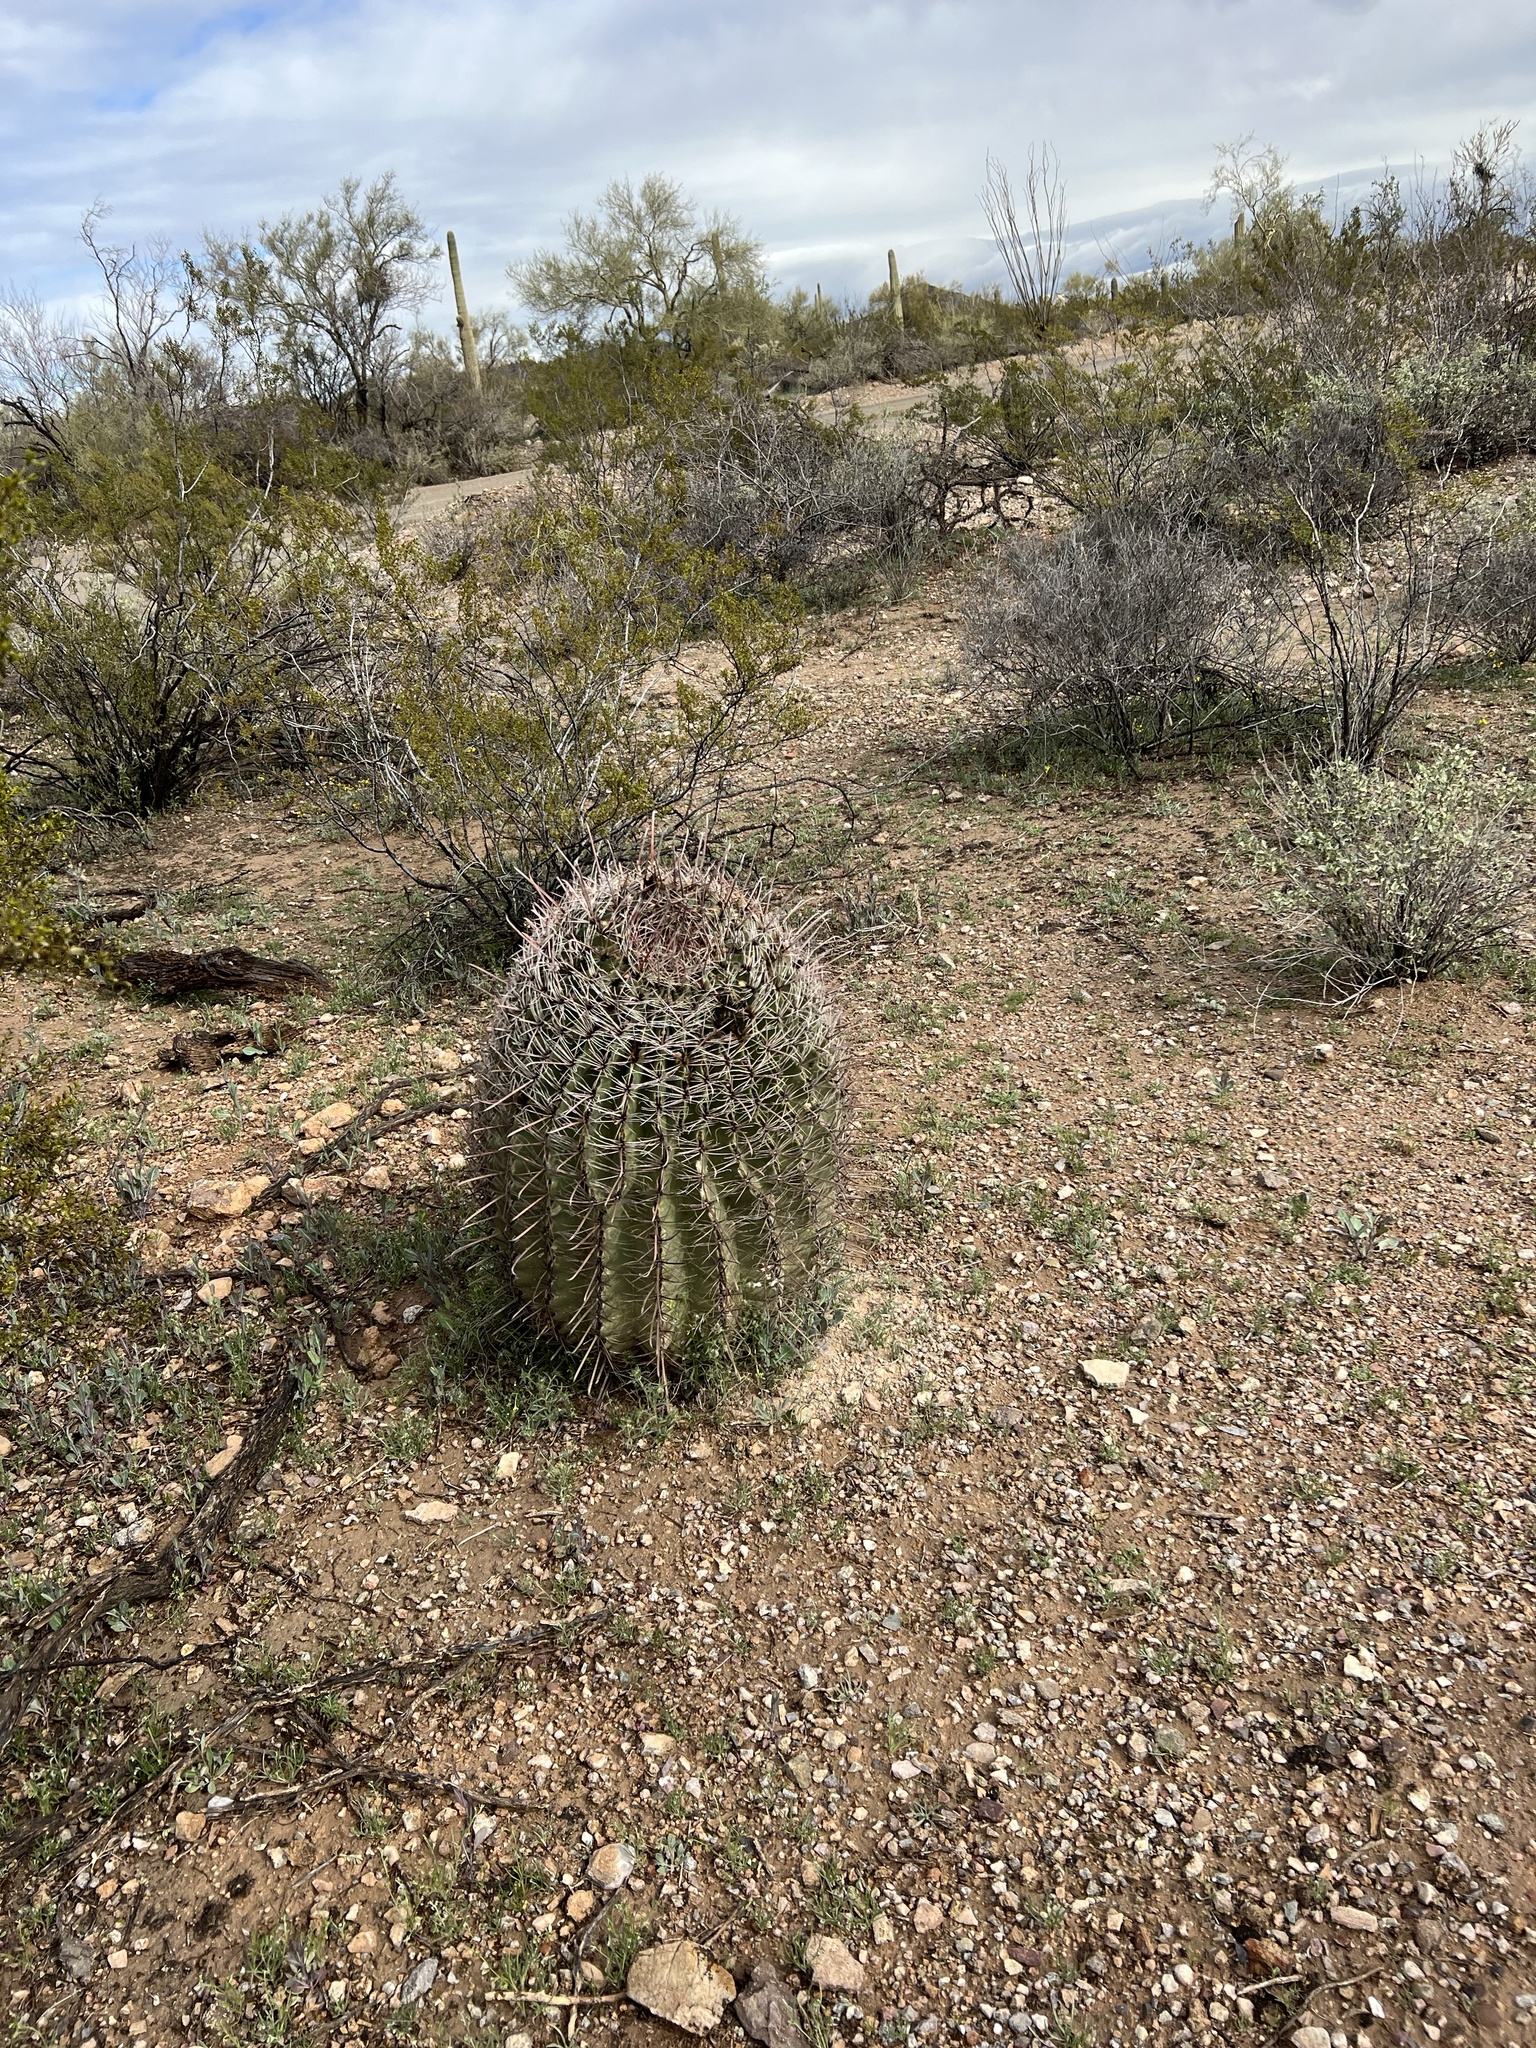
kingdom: Plantae
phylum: Tracheophyta
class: Magnoliopsida
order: Caryophyllales
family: Cactaceae
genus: Ferocactus
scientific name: Ferocactus wislizeni
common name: Candy barrel cactus
